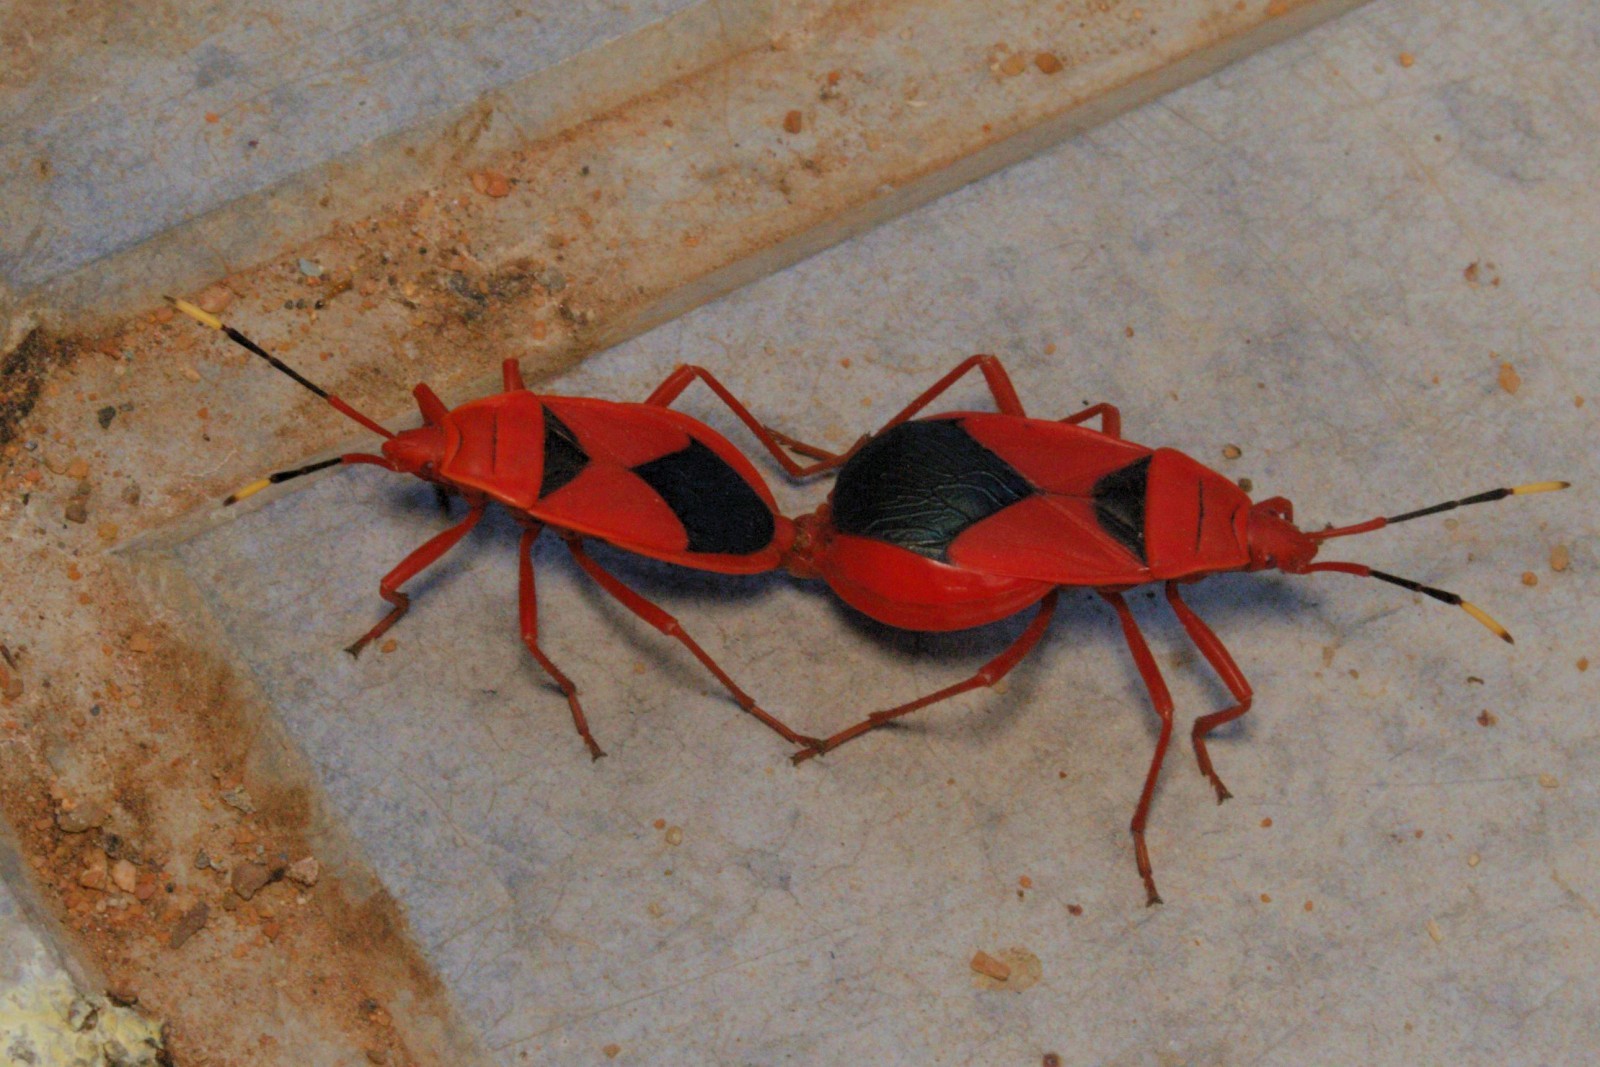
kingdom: Animalia
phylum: Arthropoda
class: Insecta
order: Hemiptera
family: Pyrrhocoridae
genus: Probergrothius
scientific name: Probergrothius
